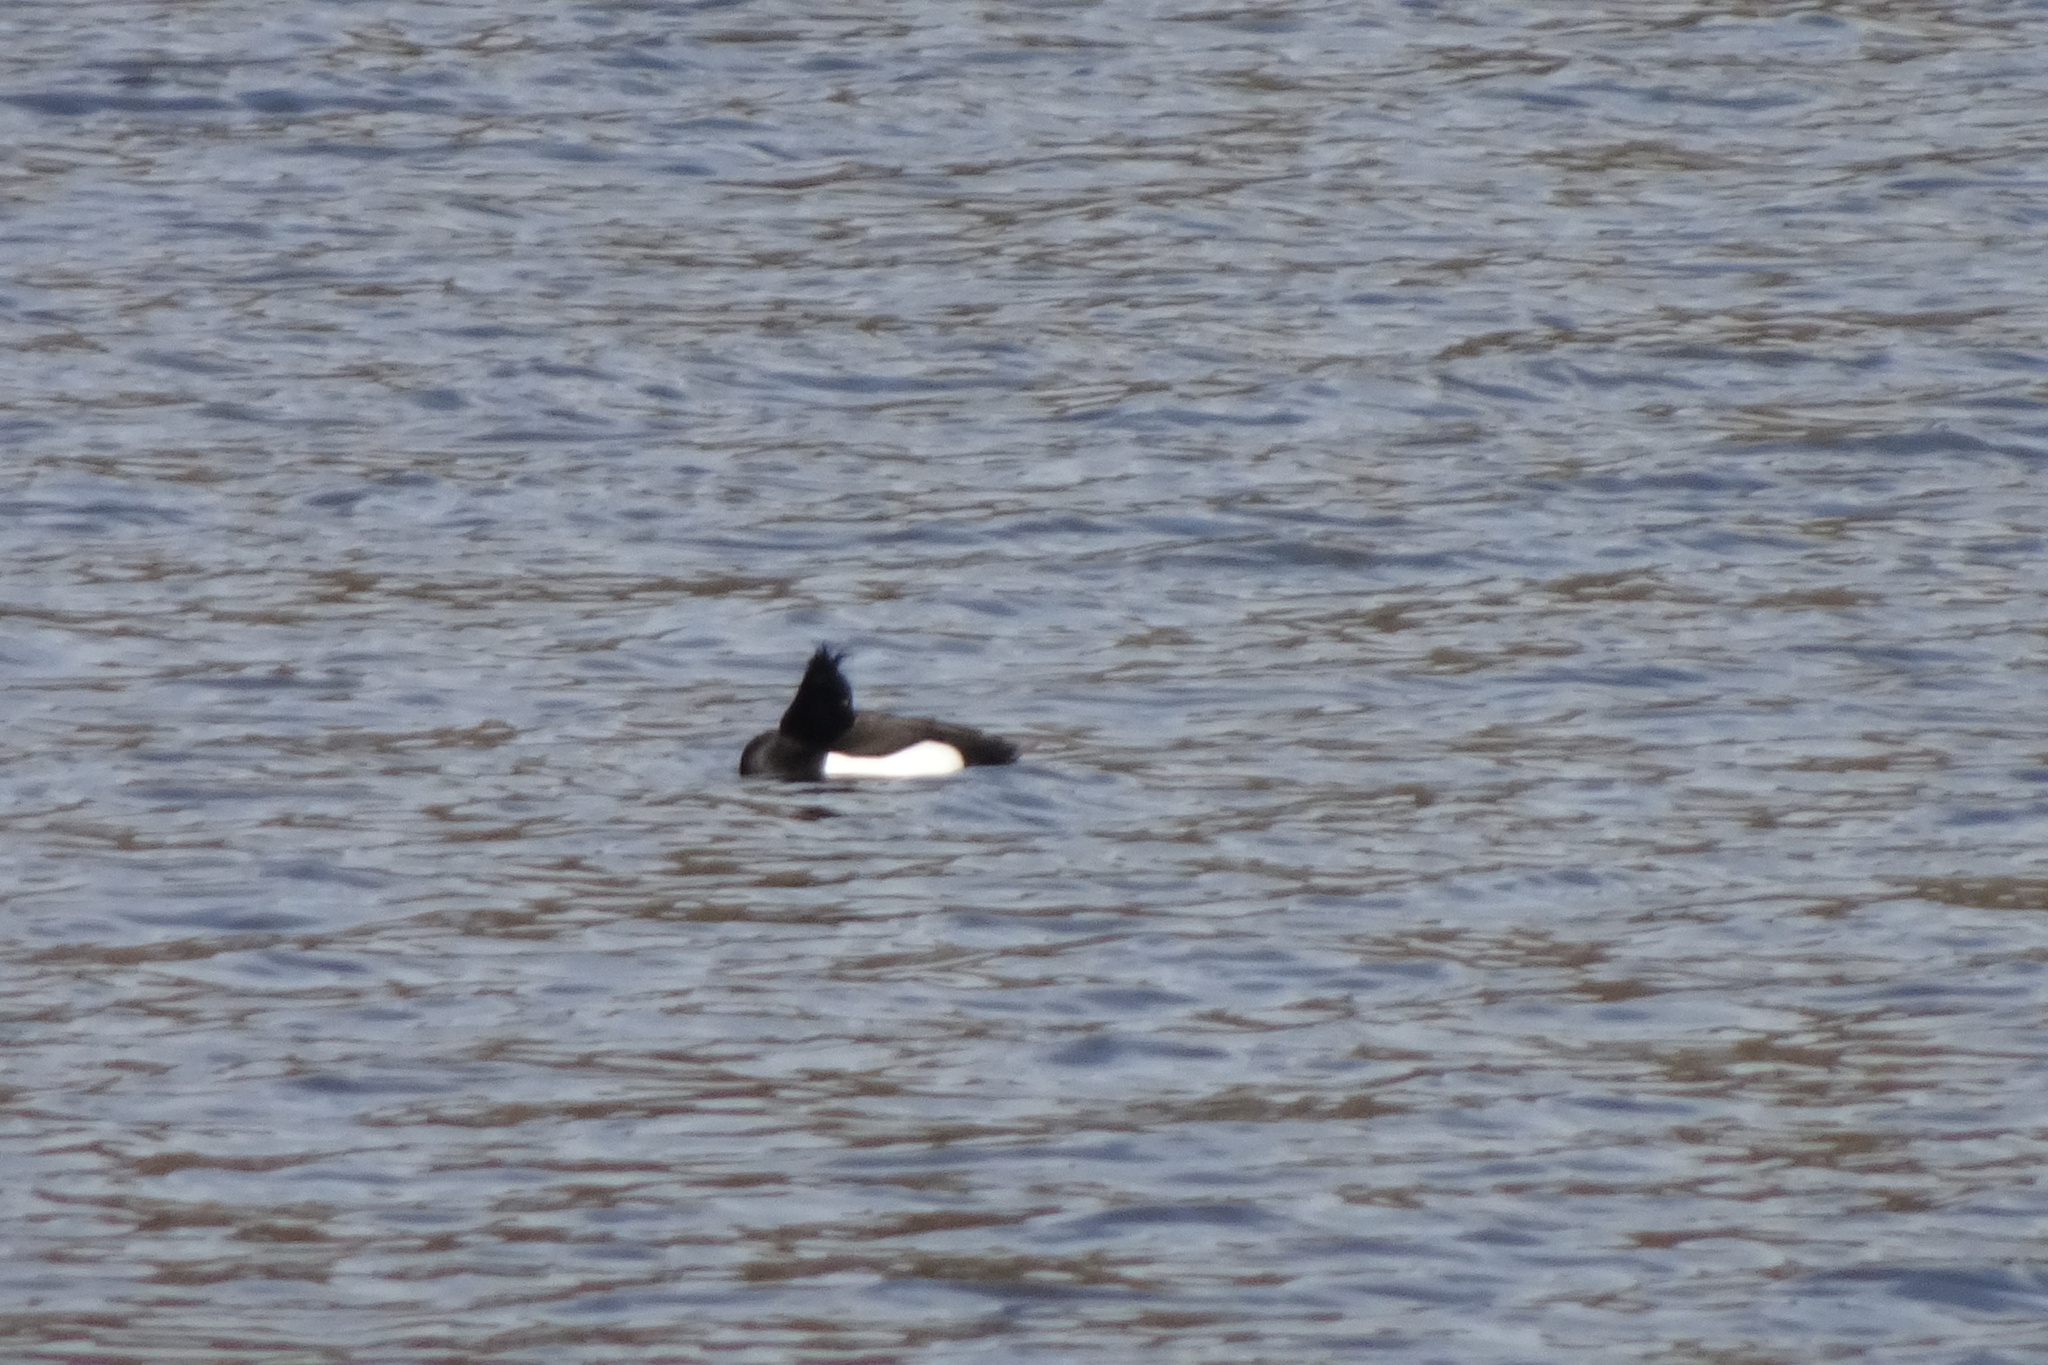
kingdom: Animalia
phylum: Chordata
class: Aves
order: Anseriformes
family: Anatidae
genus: Aythya
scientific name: Aythya fuligula
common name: Tufted duck
